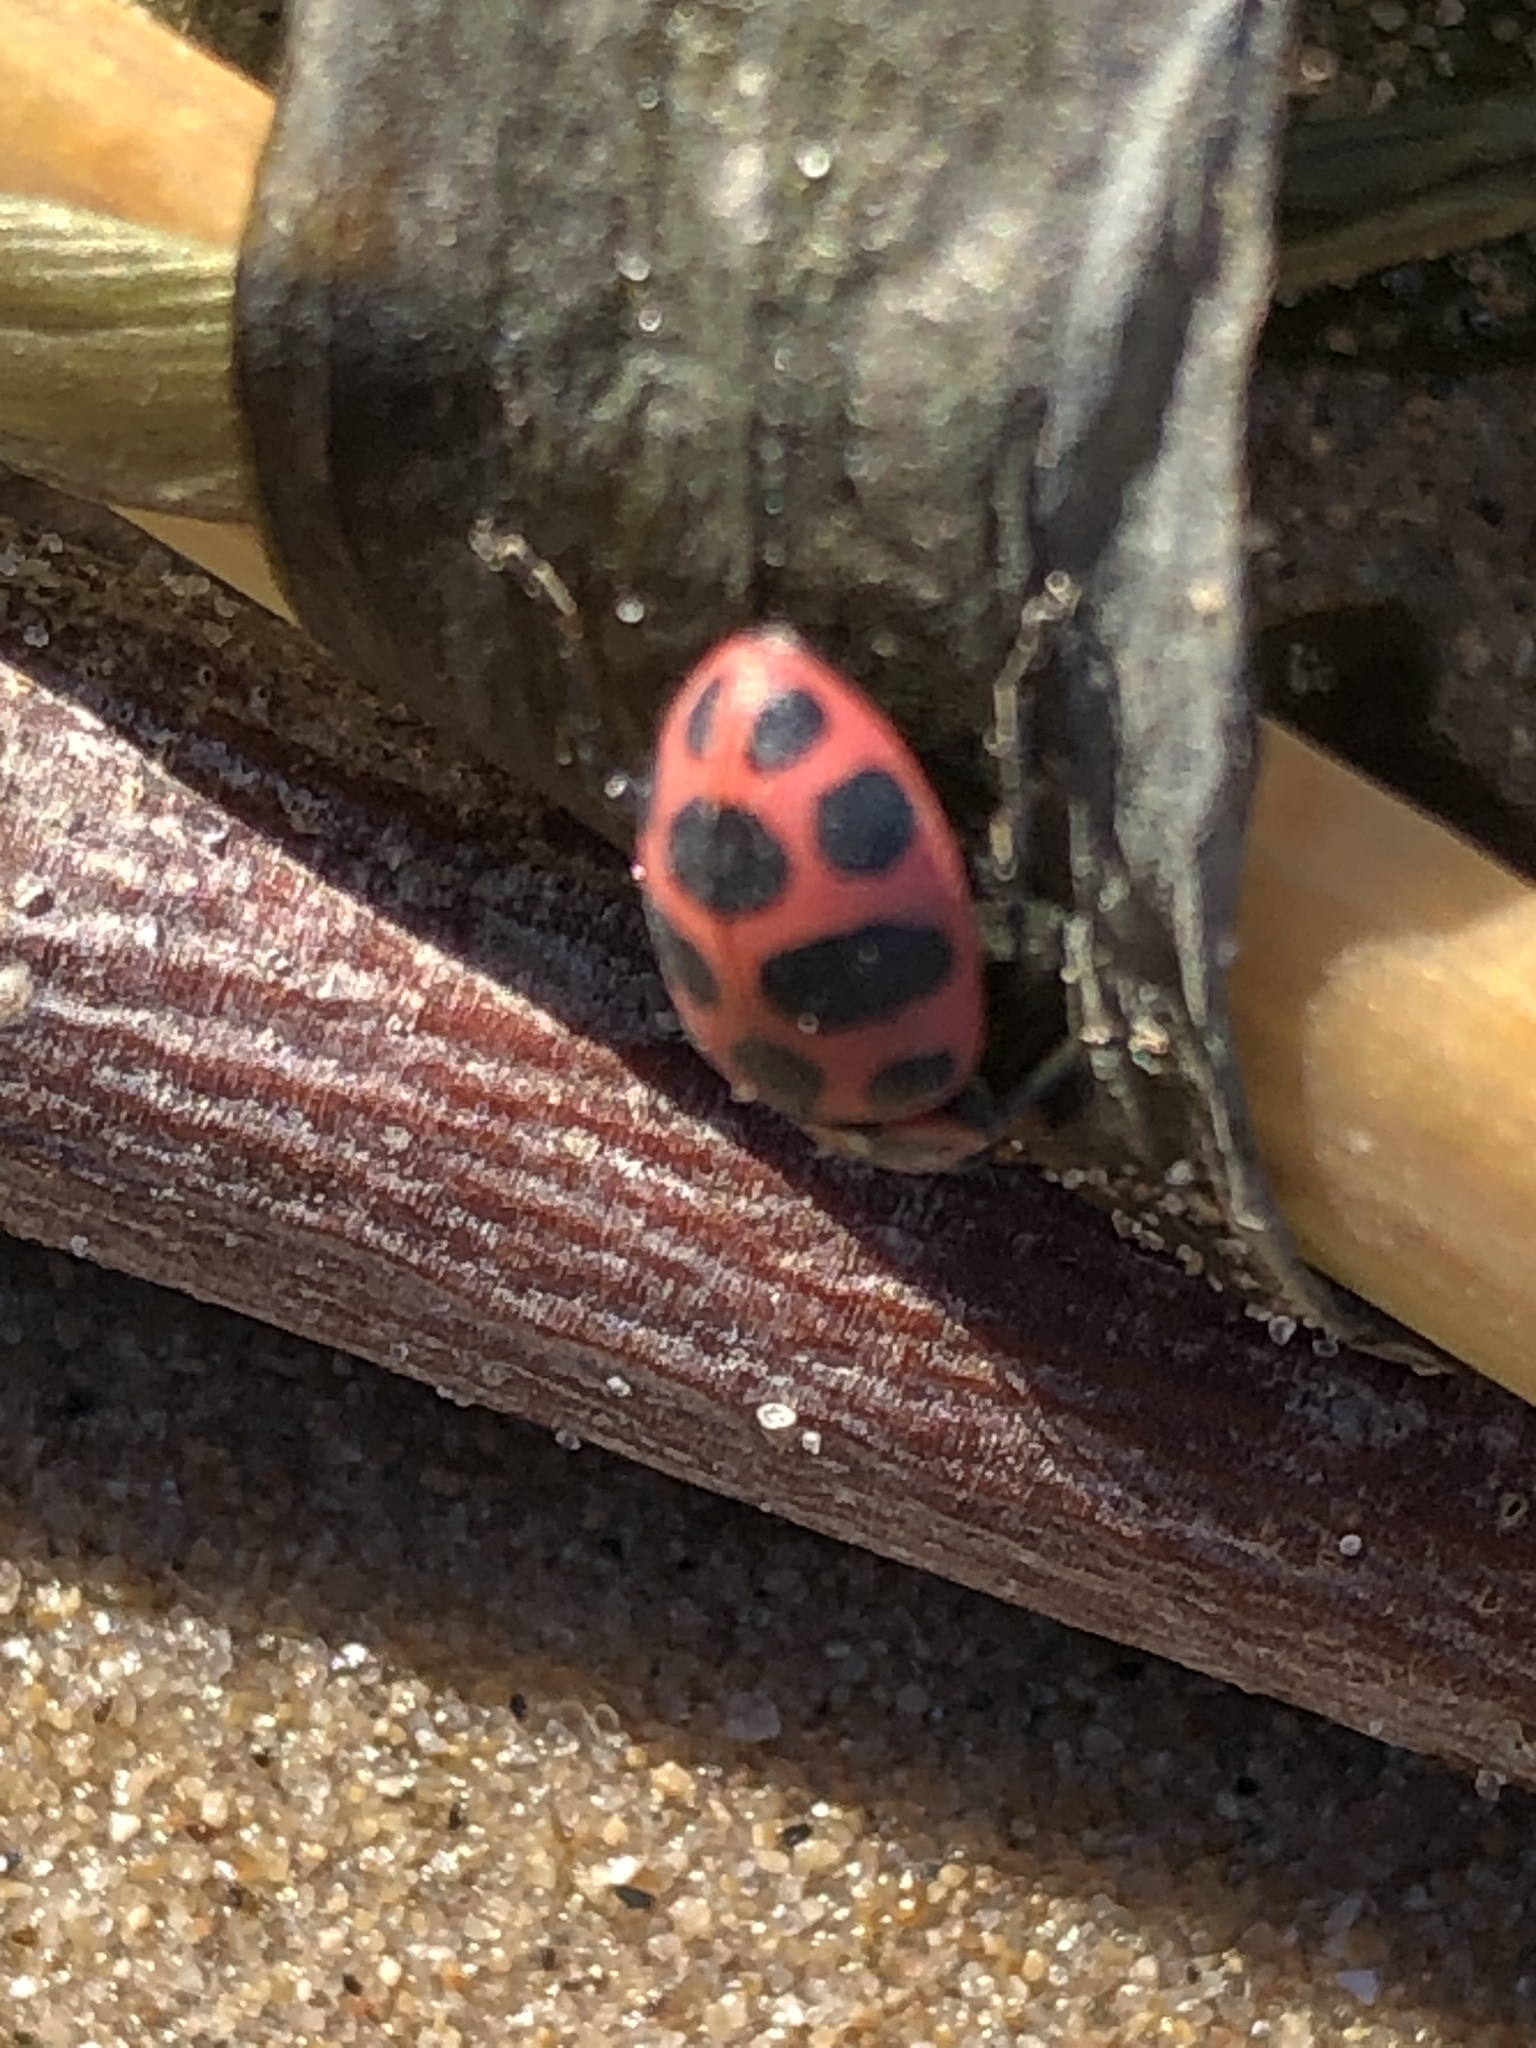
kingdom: Animalia
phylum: Arthropoda
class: Insecta
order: Coleoptera
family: Coccinellidae
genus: Coleomegilla
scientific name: Coleomegilla maculata
